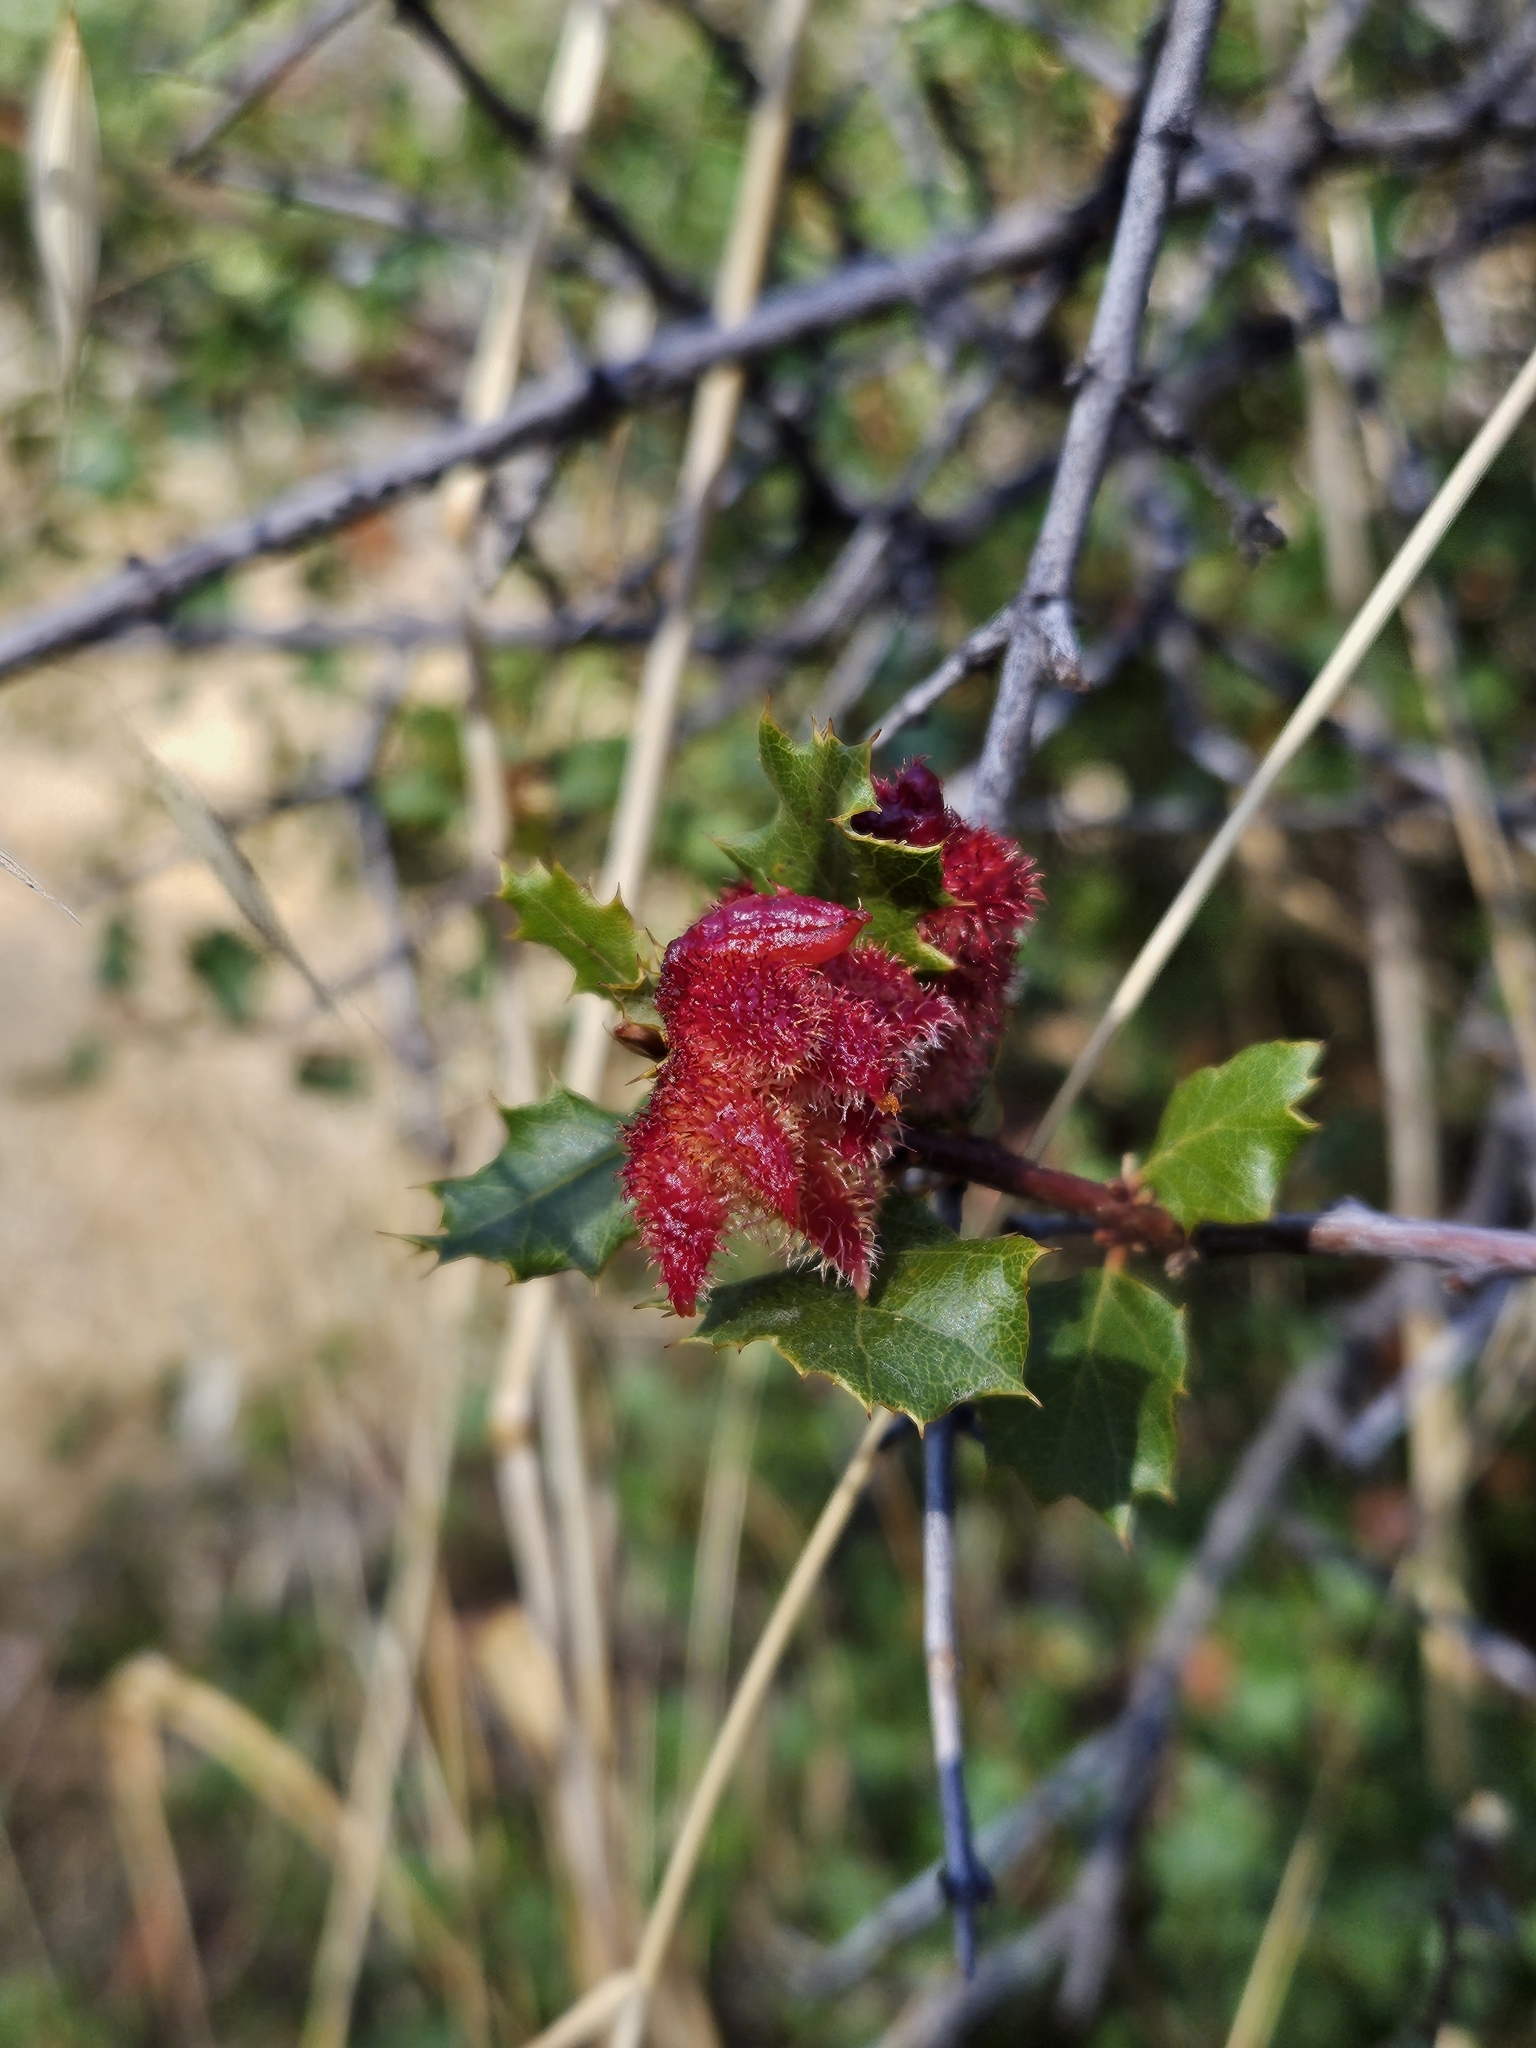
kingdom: Animalia
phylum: Arthropoda
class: Insecta
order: Hymenoptera
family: Cynipidae
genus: Andricus
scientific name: Andricus
